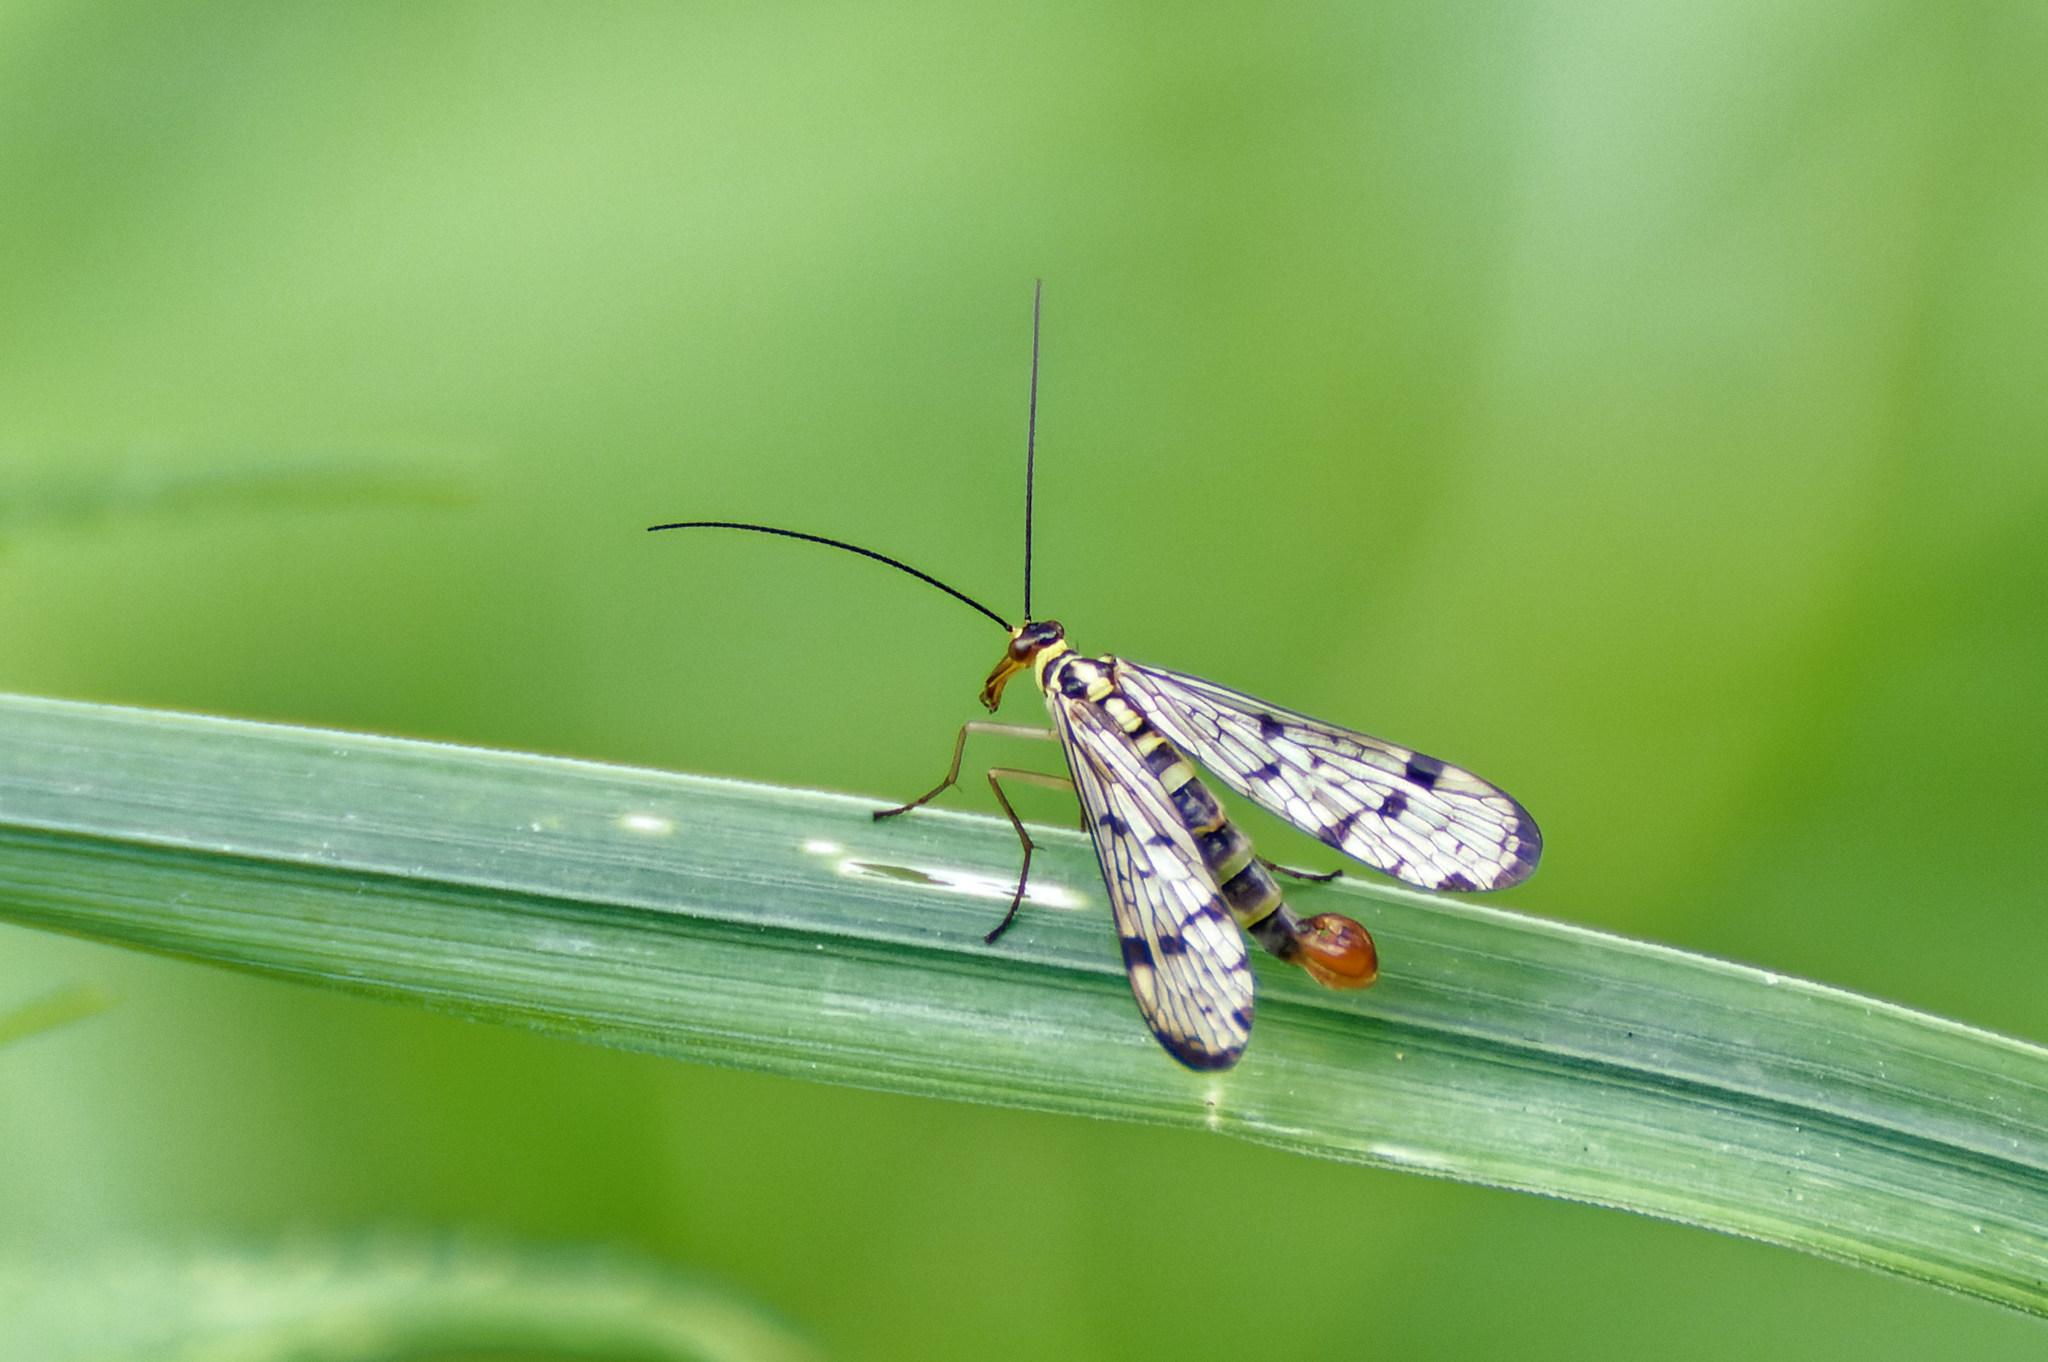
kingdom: Animalia
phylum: Arthropoda
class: Insecta
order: Mecoptera
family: Panorpidae
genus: Panorpa
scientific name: Panorpa germanica
